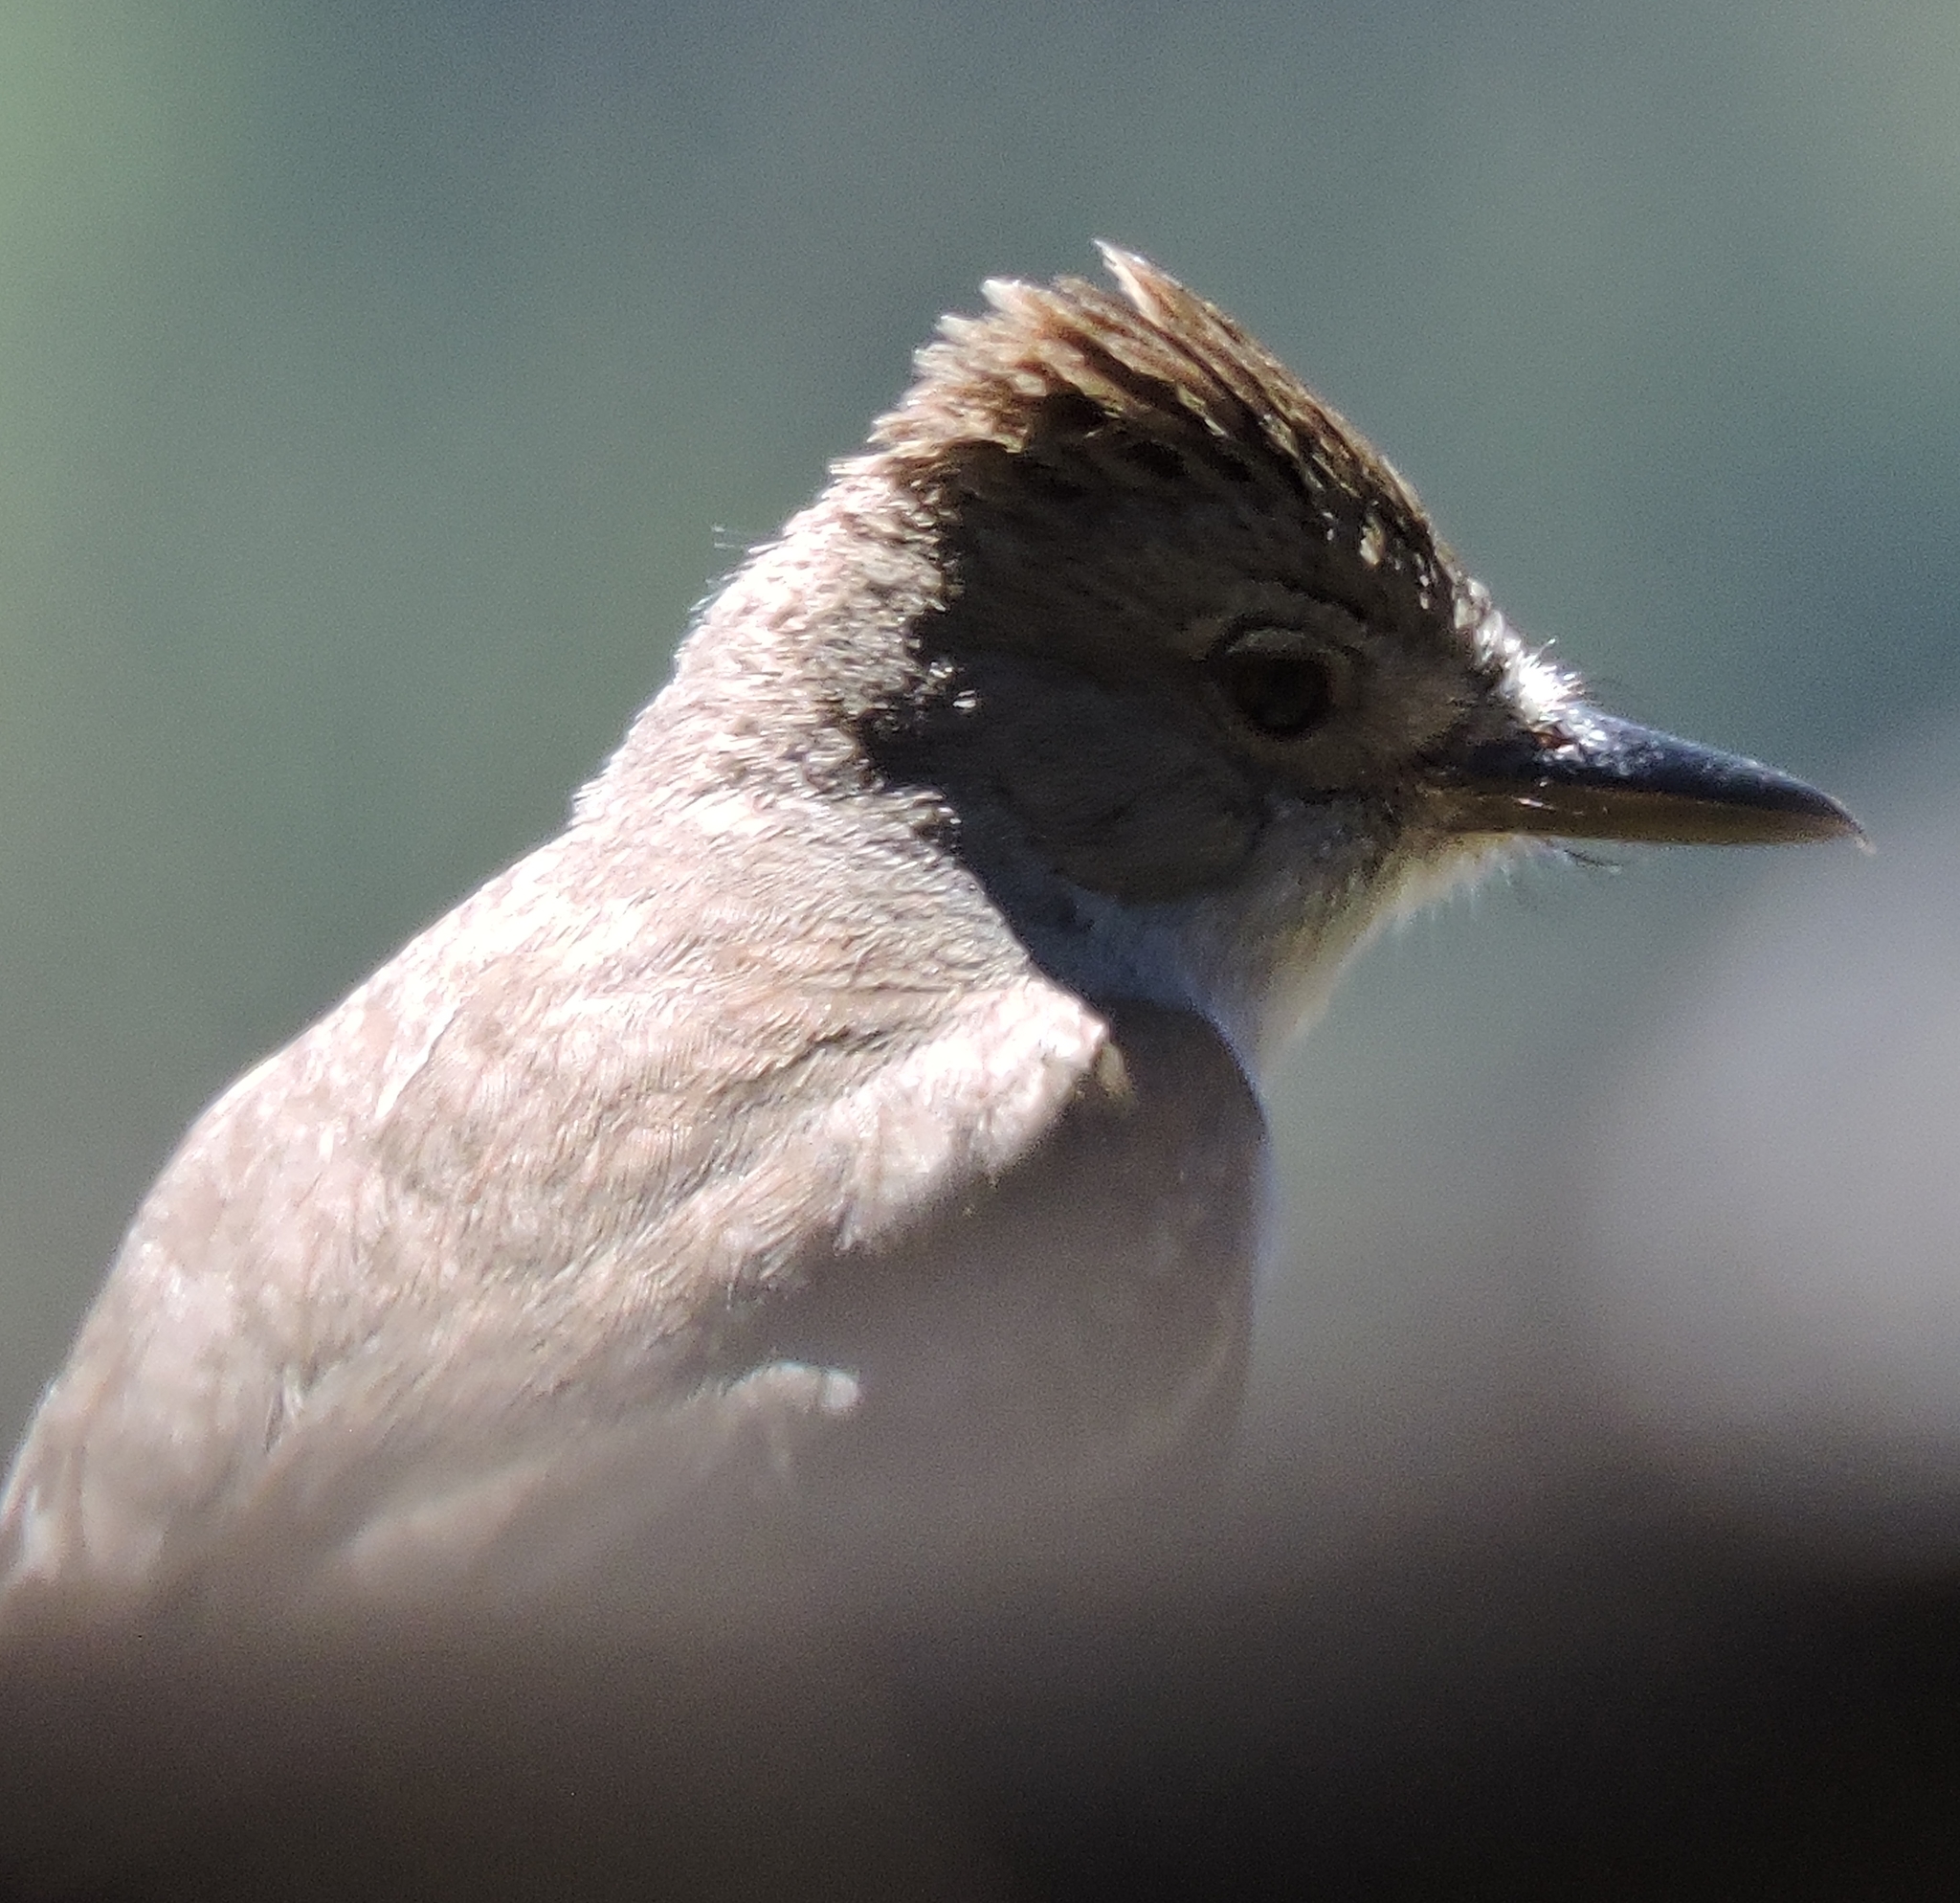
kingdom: Animalia
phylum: Chordata
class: Aves
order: Passeriformes
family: Tyrannidae
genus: Myiarchus
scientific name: Myiarchus cinerascens
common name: Ash-throated flycatcher
